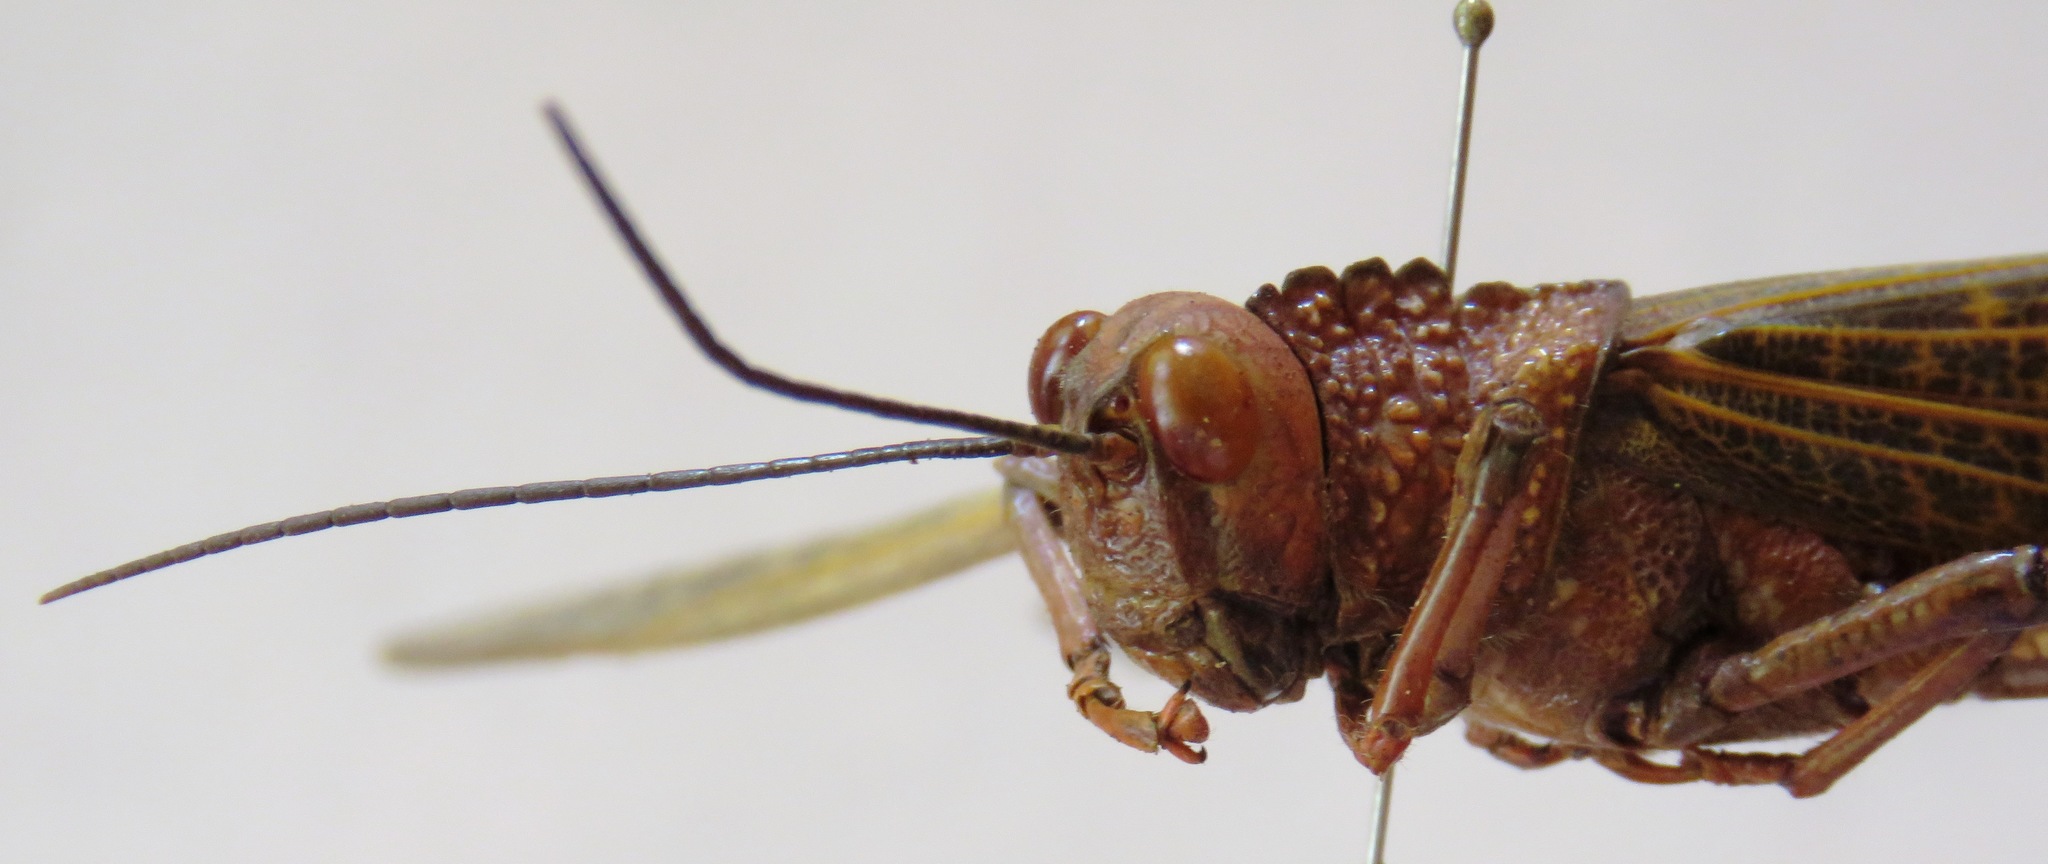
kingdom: Animalia
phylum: Arthropoda
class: Insecta
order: Orthoptera
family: Romaleidae
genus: Tropidacris
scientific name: Tropidacris cristata
